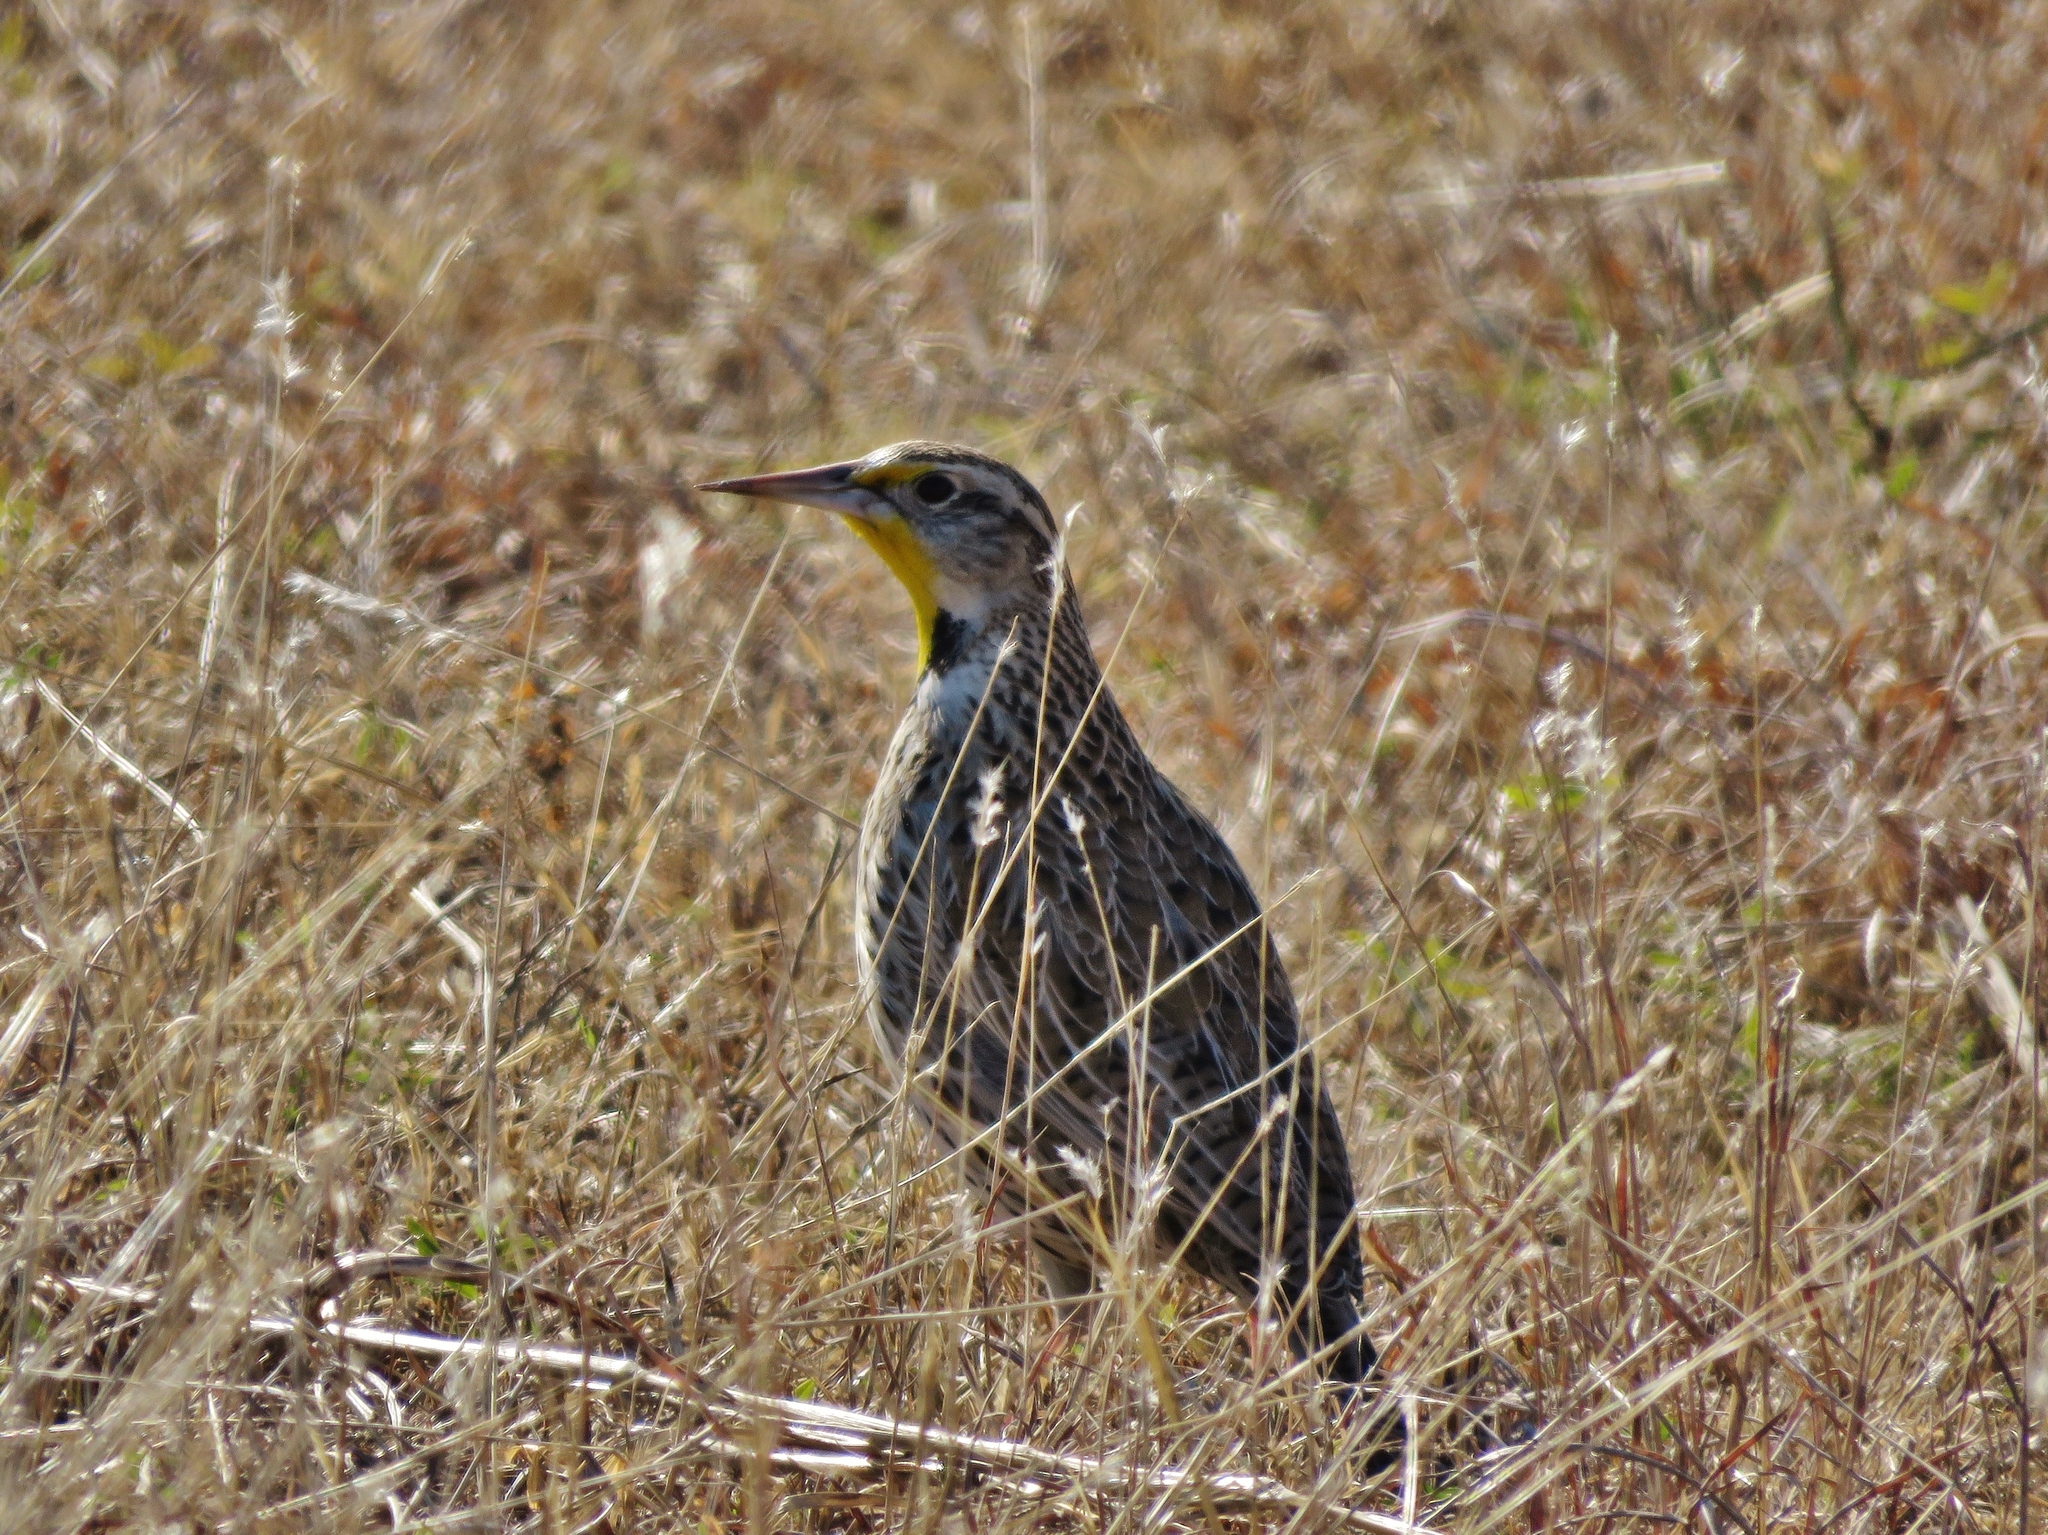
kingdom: Animalia
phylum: Chordata
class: Aves
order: Passeriformes
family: Icteridae
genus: Sturnella
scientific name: Sturnella neglecta
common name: Western meadowlark
